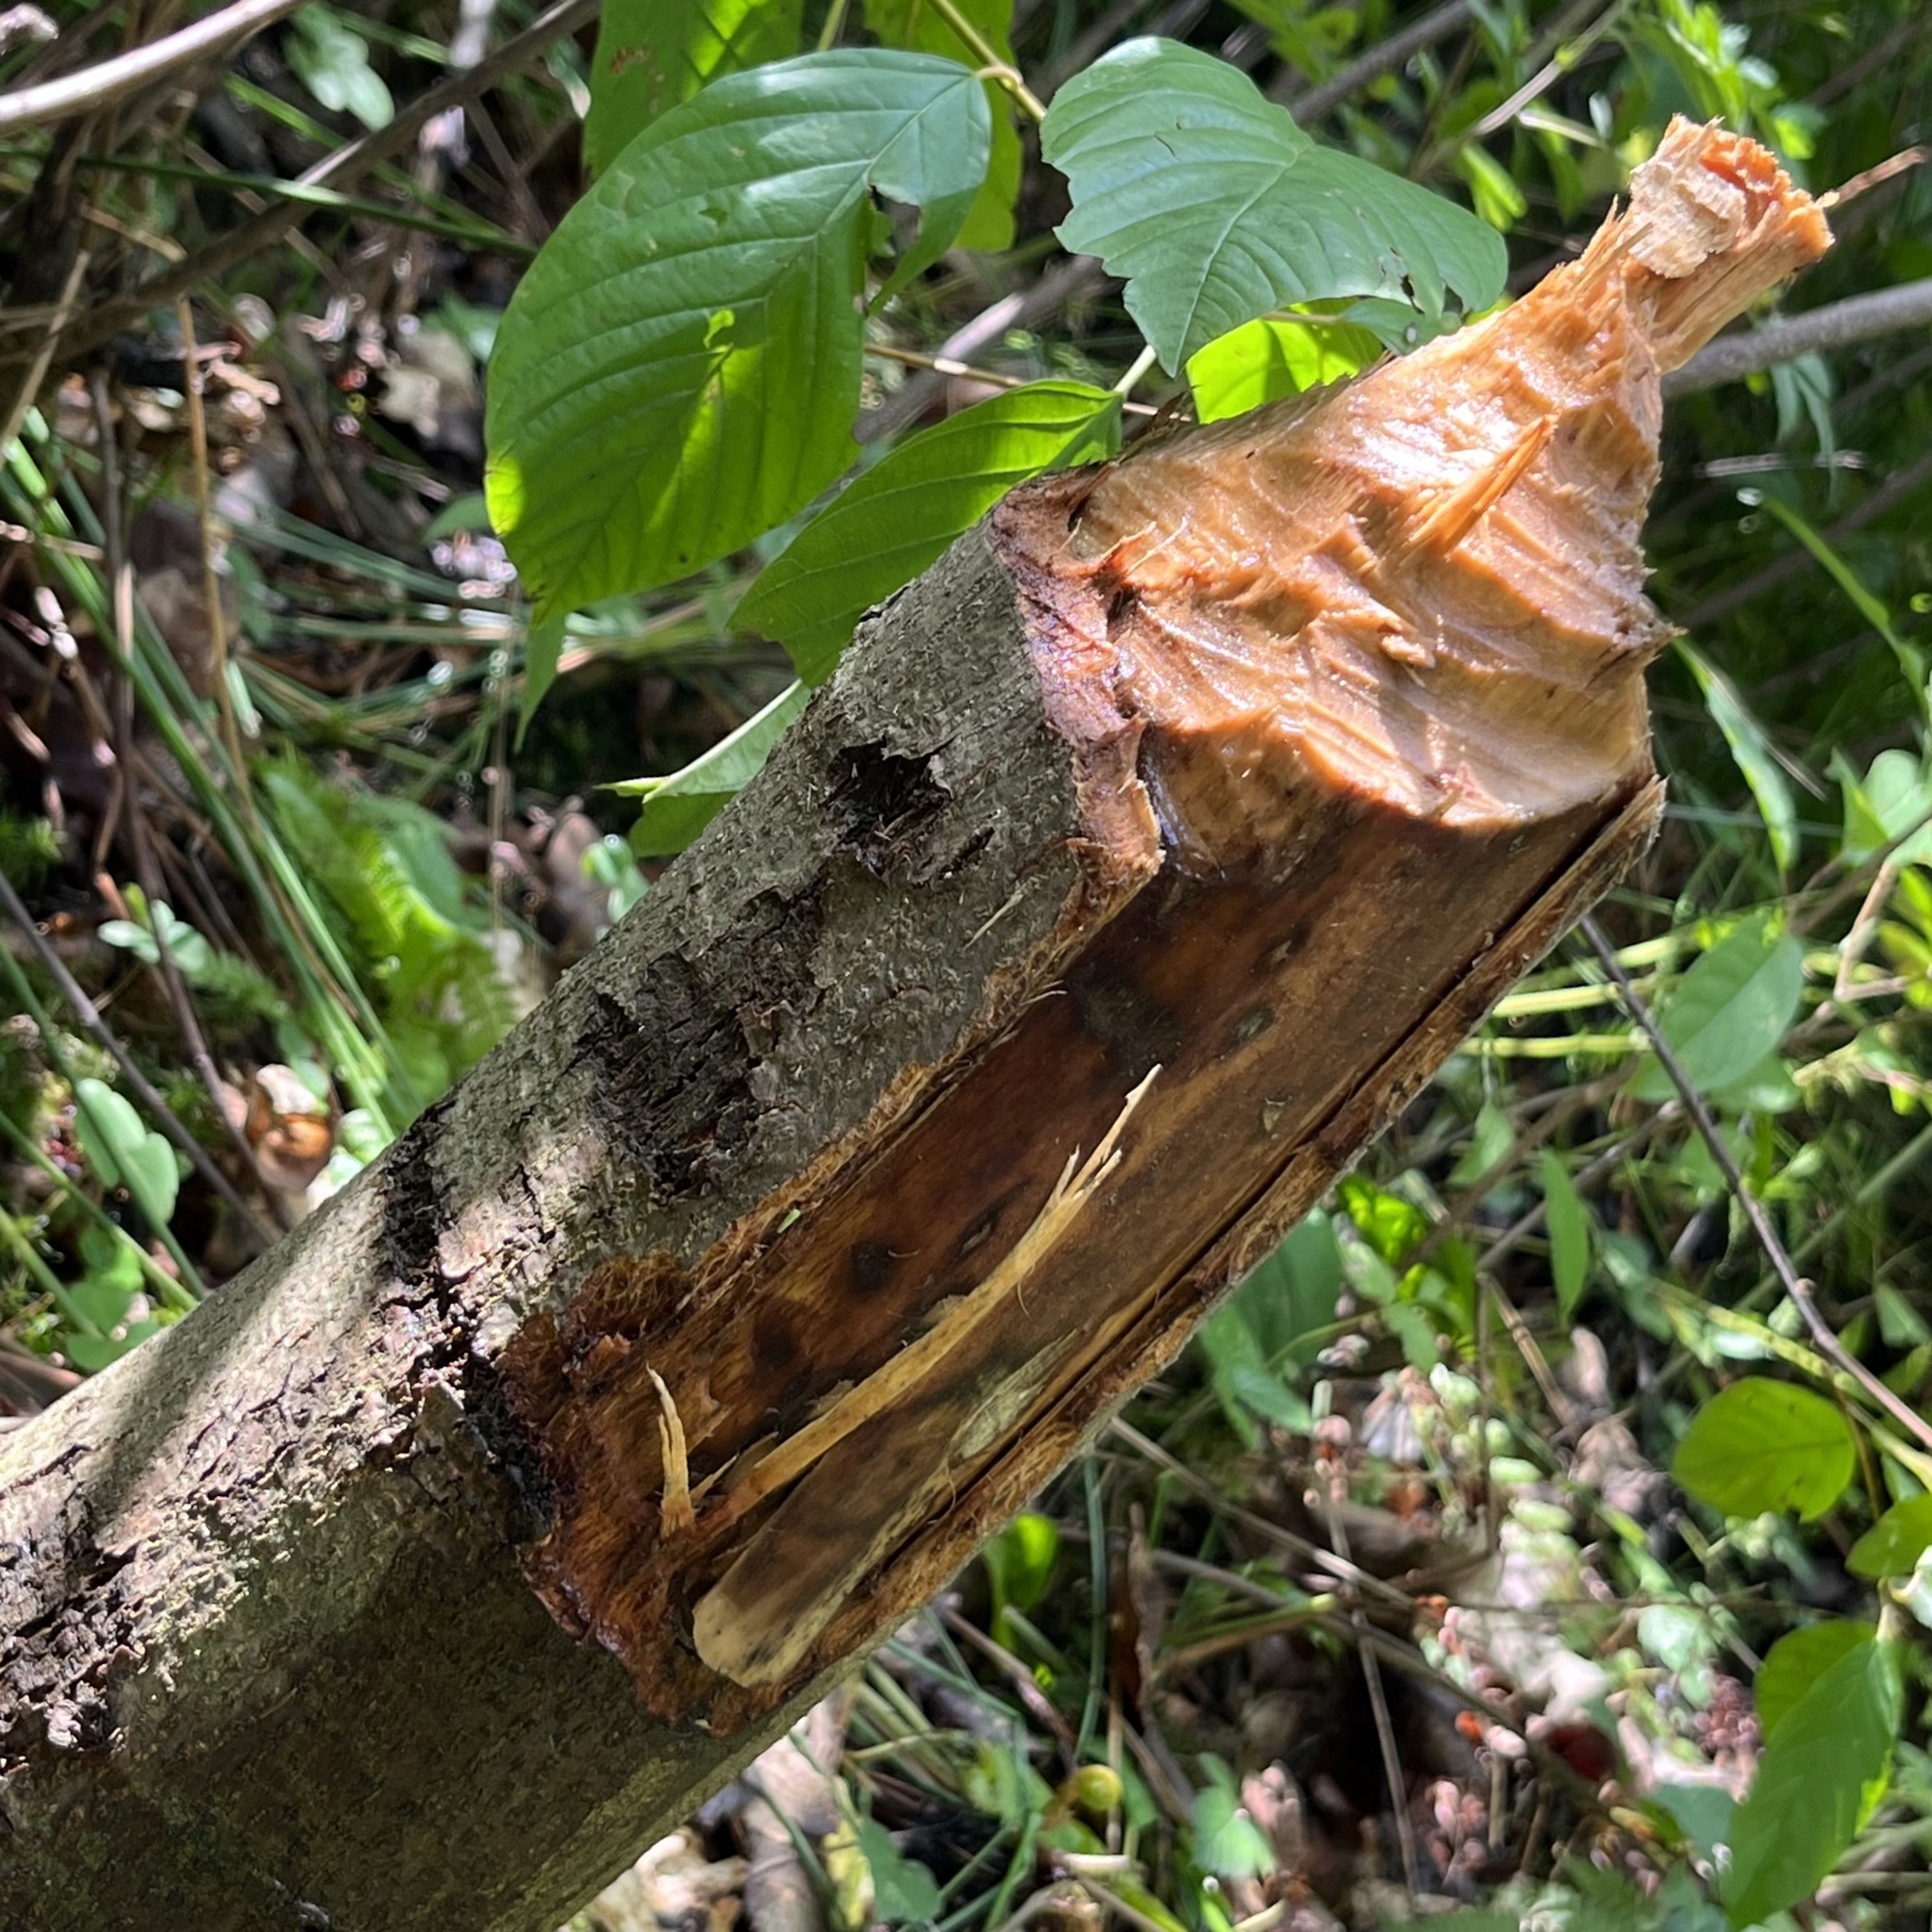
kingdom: Animalia
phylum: Chordata
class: Mammalia
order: Rodentia
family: Castoridae
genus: Castor
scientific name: Castor fiber
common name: Eurasian beaver
